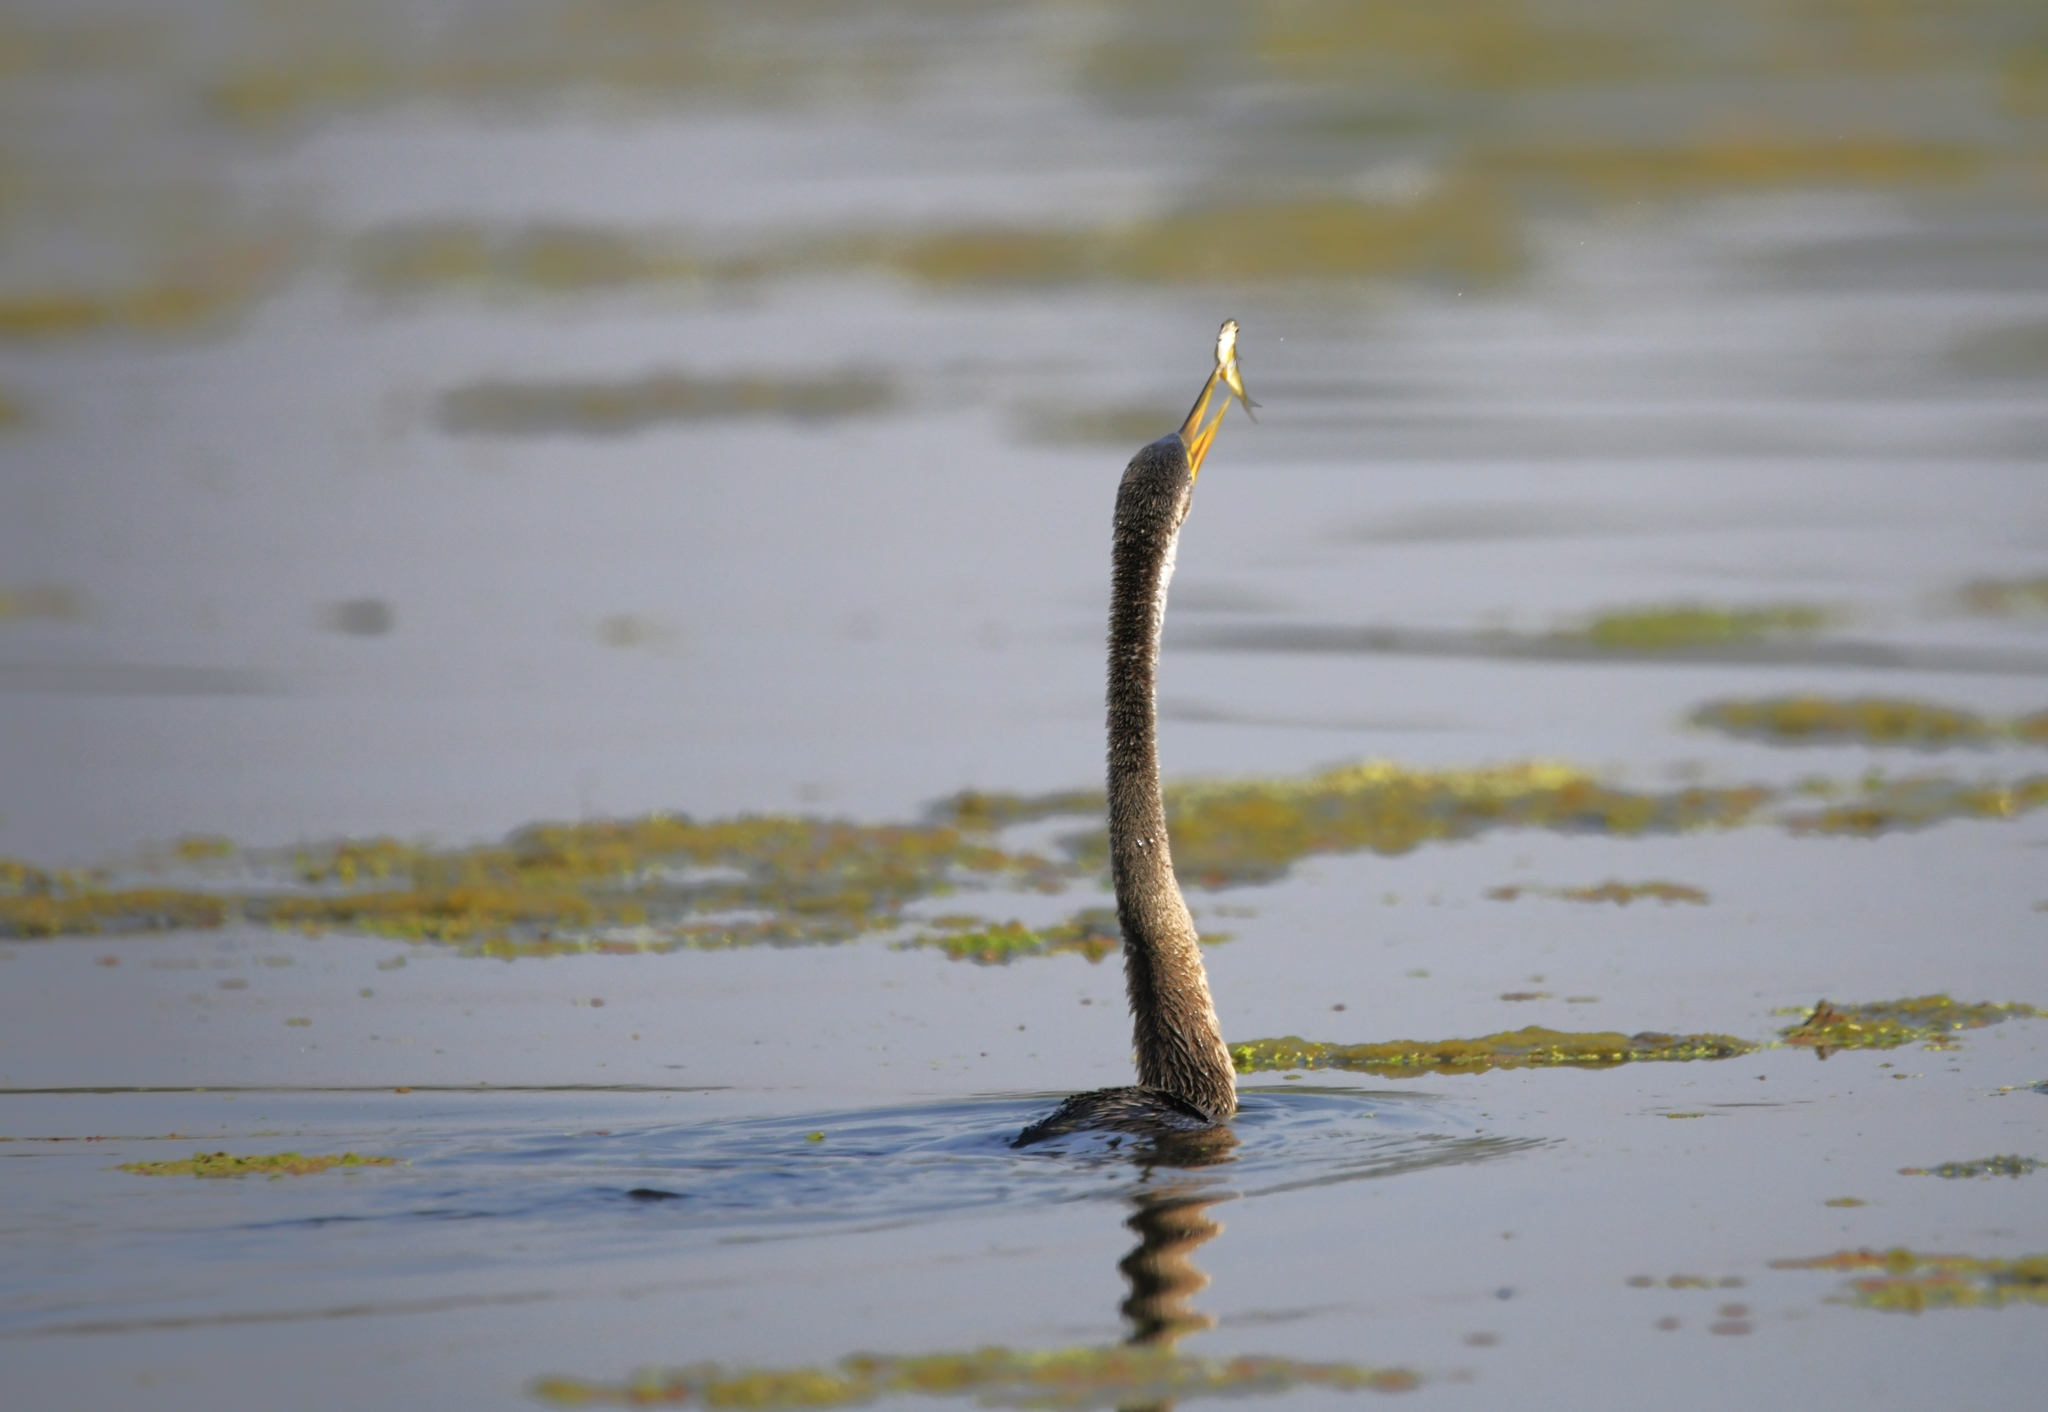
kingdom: Animalia
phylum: Chordata
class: Aves
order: Suliformes
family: Anhingidae
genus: Anhinga
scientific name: Anhinga melanogaster
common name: Oriental darter
